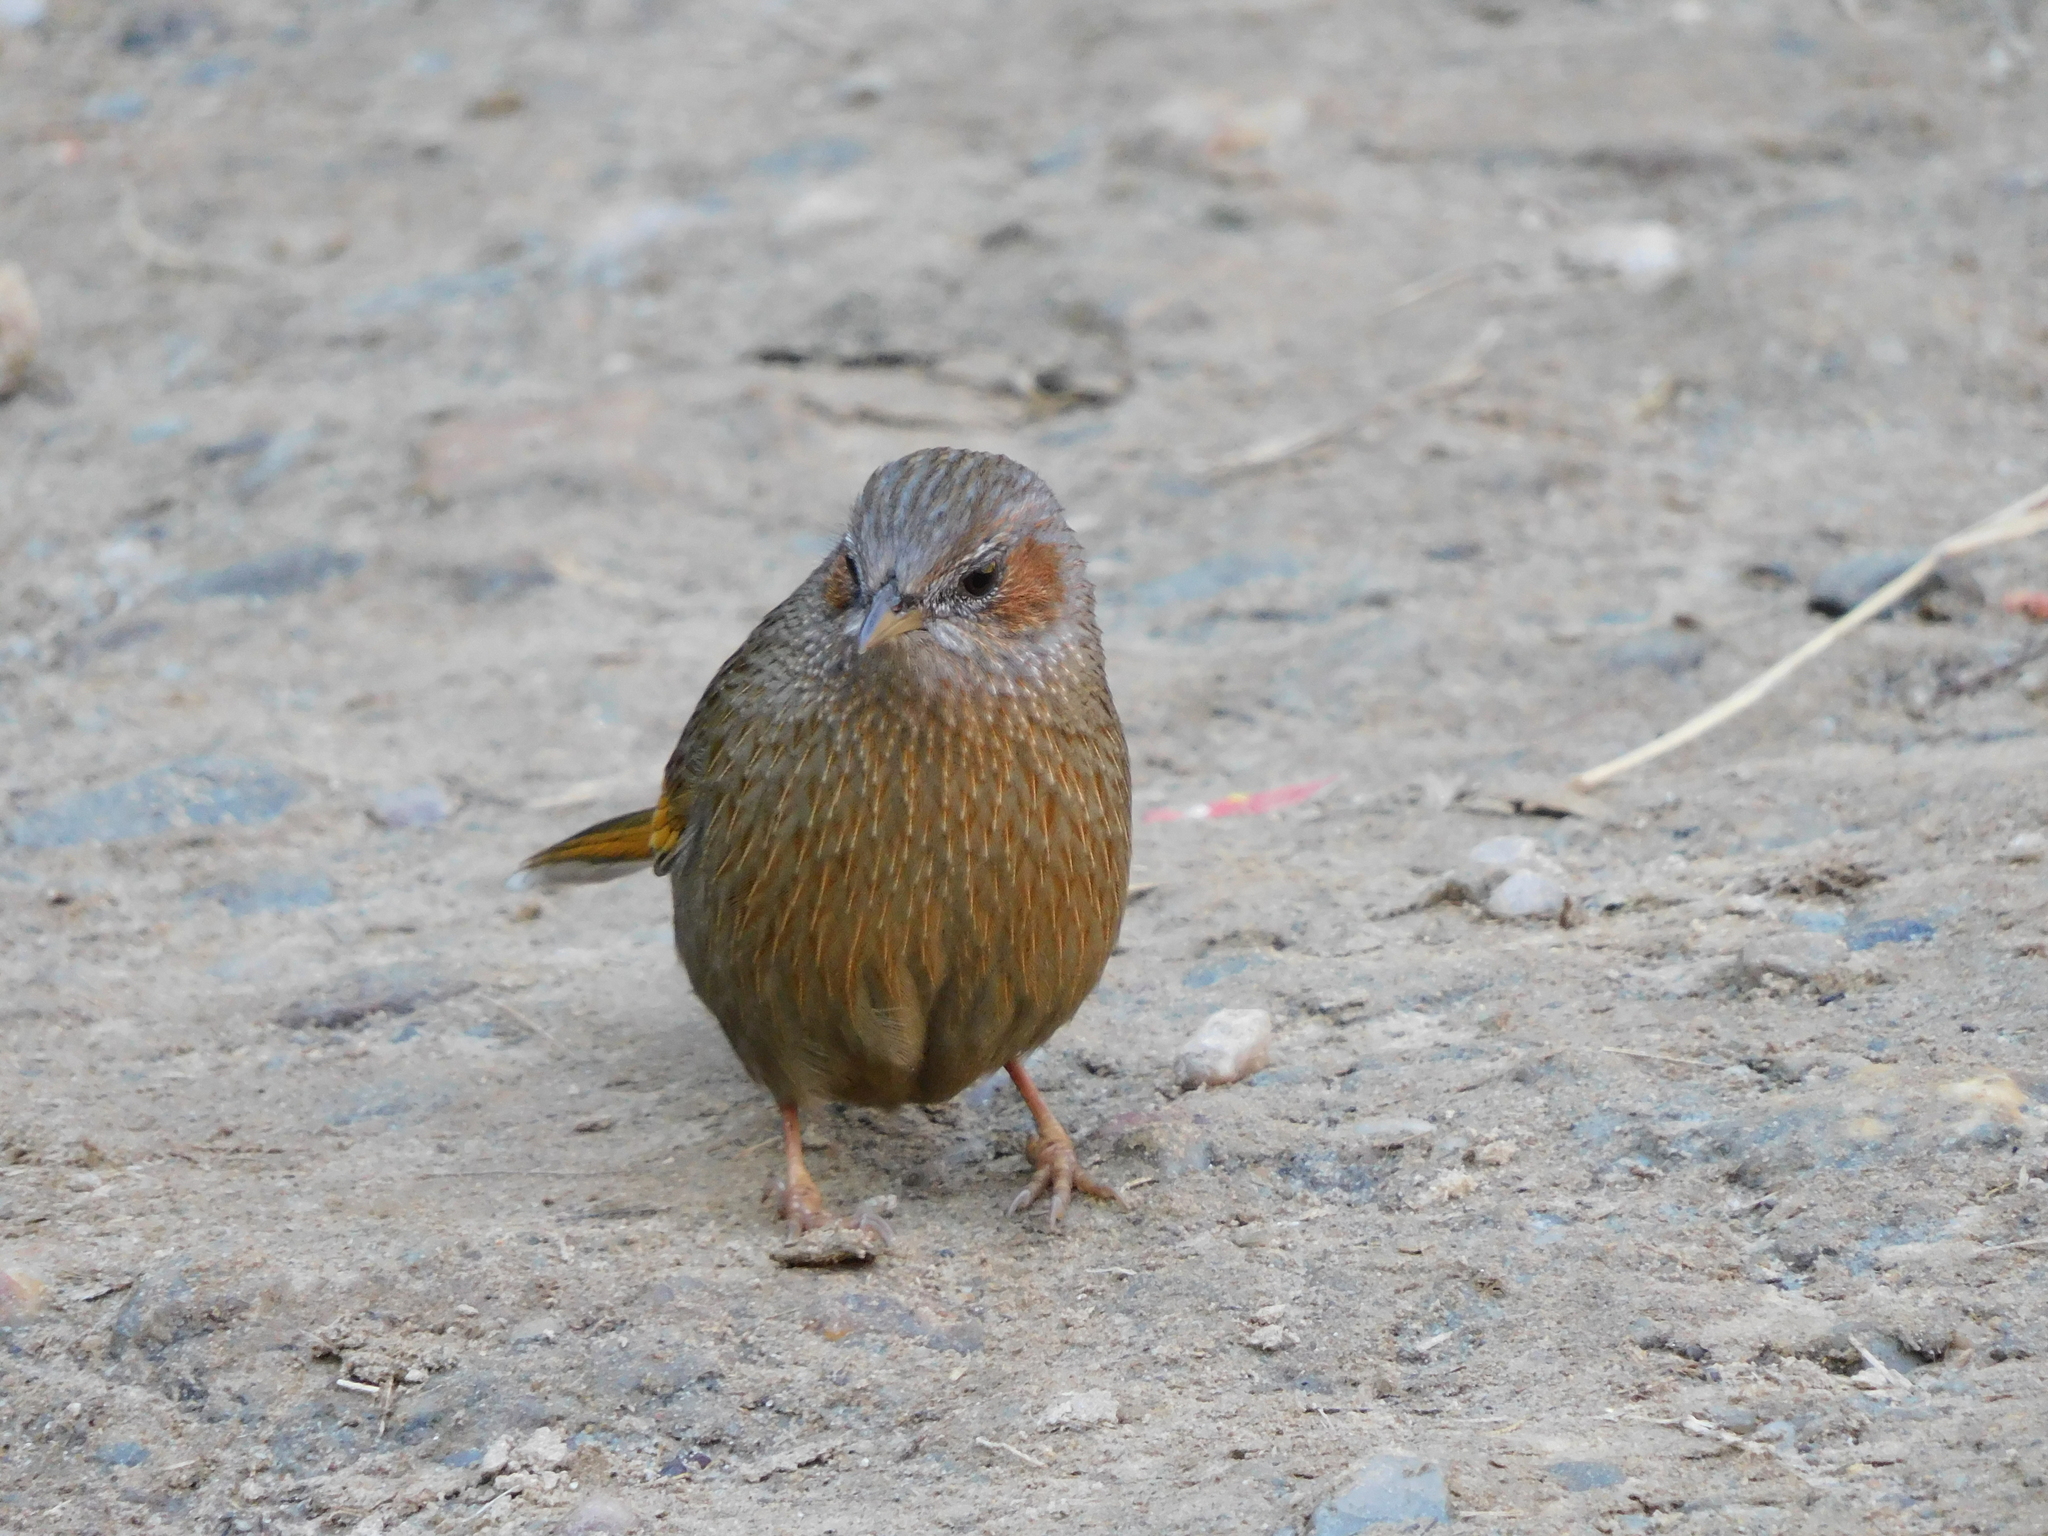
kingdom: Animalia
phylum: Chordata
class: Aves
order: Passeriformes
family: Leiothrichidae
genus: Trochalopteron
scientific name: Trochalopteron lineatum
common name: Streaked laughingthrush
